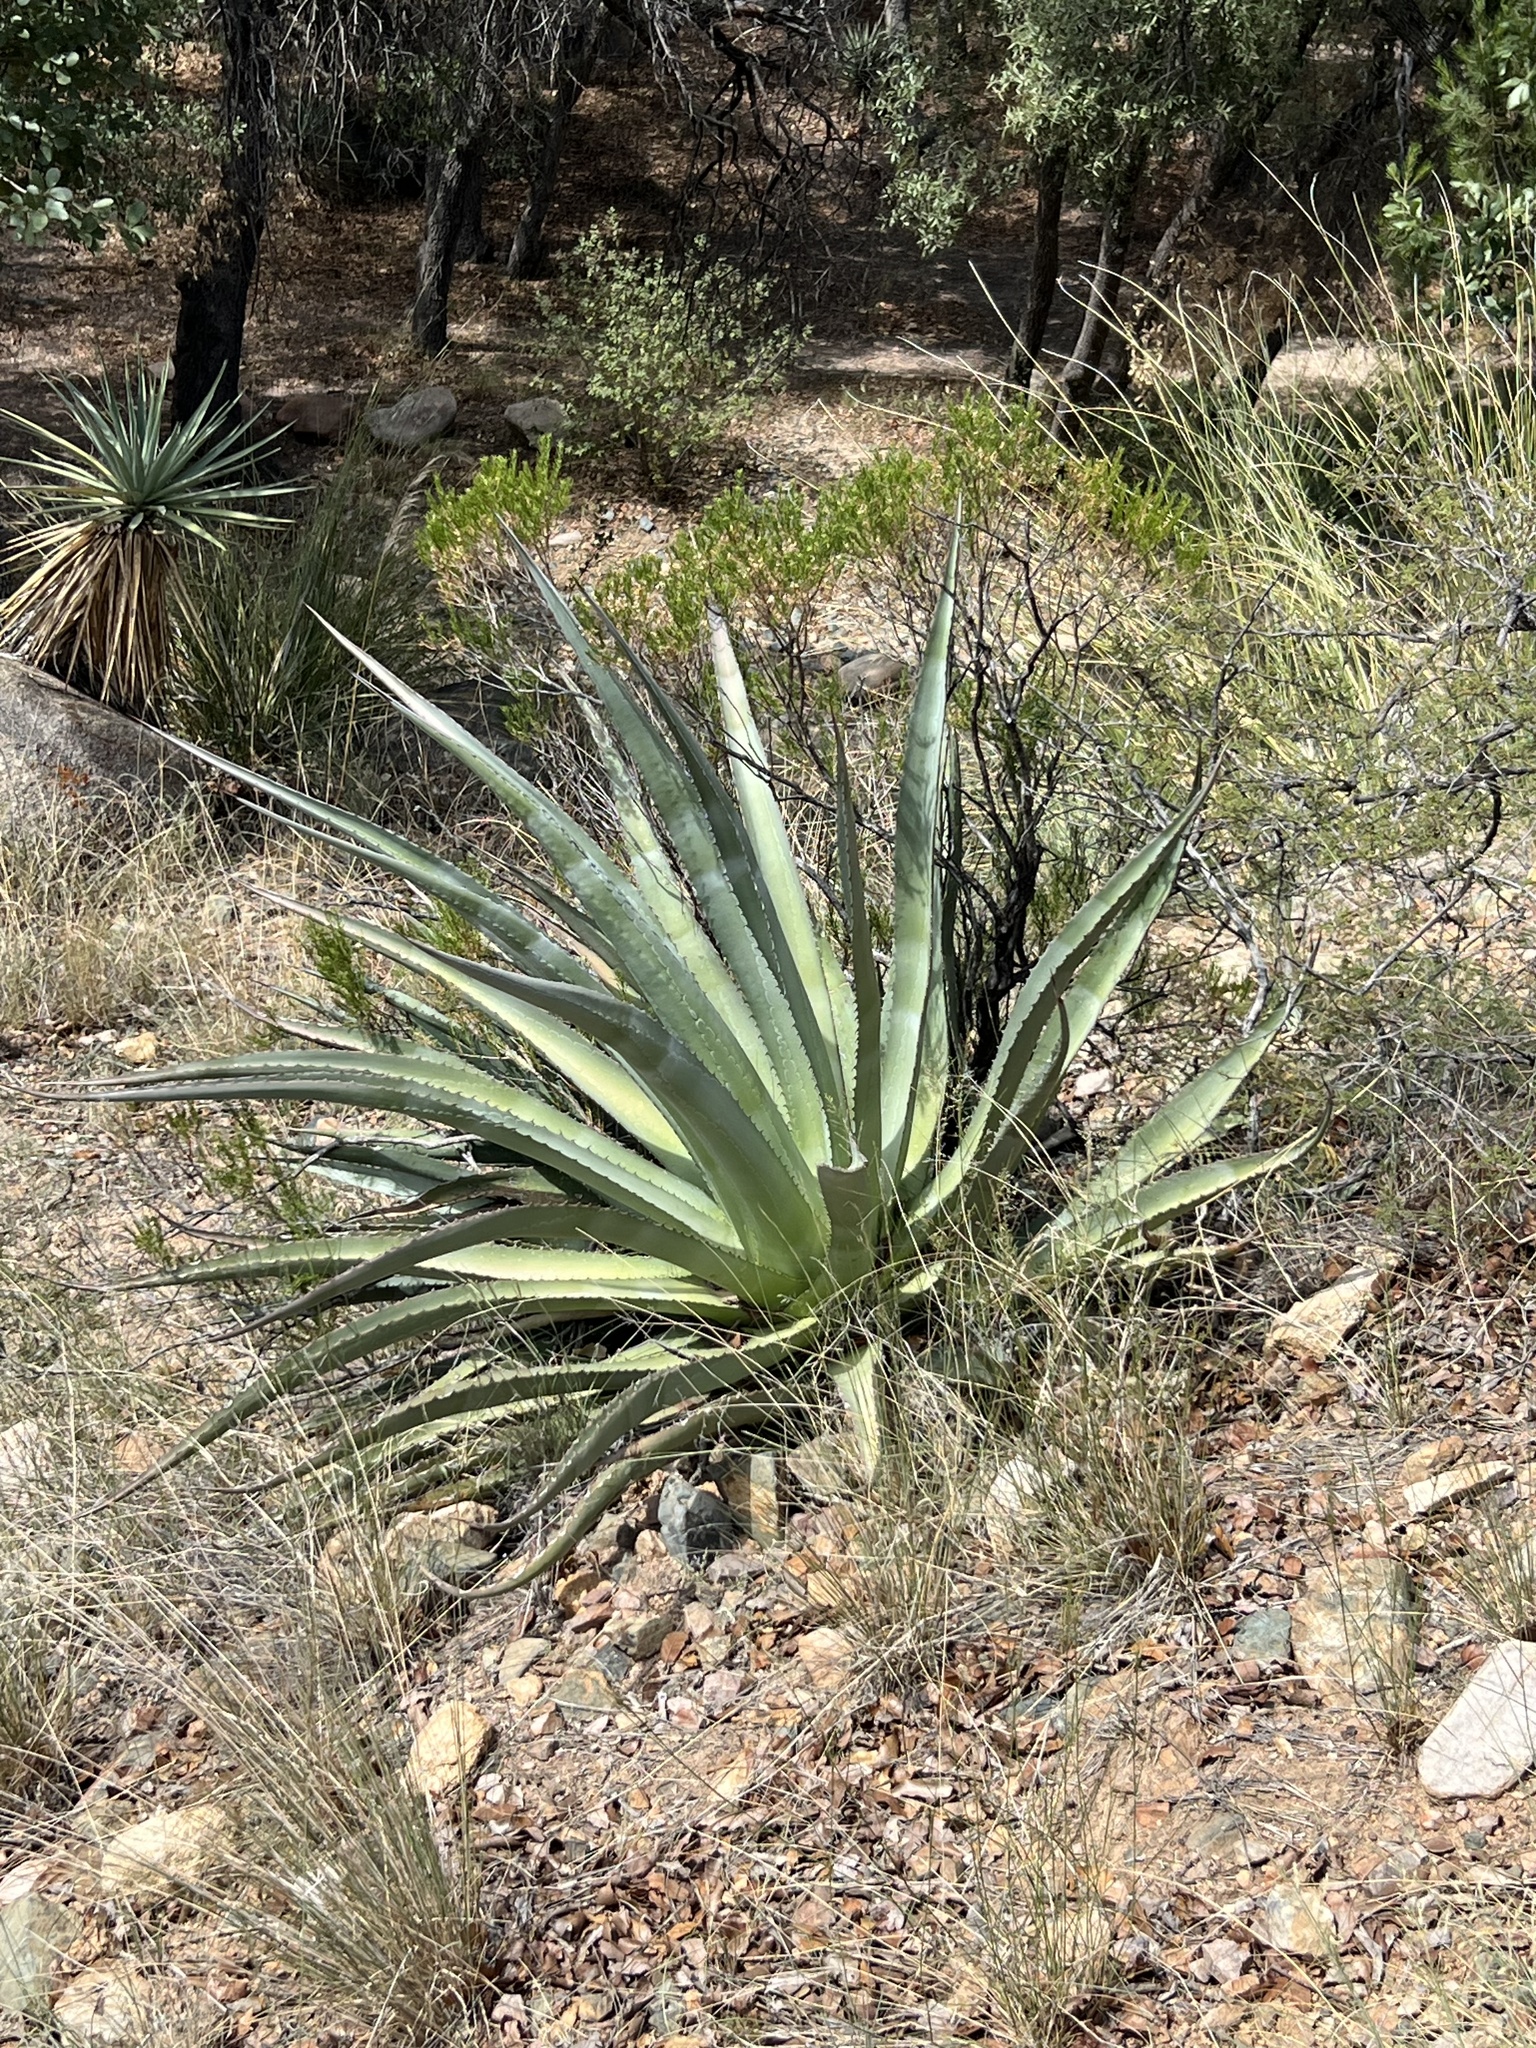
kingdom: Plantae
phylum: Tracheophyta
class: Liliopsida
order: Asparagales
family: Asparagaceae
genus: Agave
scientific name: Agave palmeri
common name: Palmer agave
